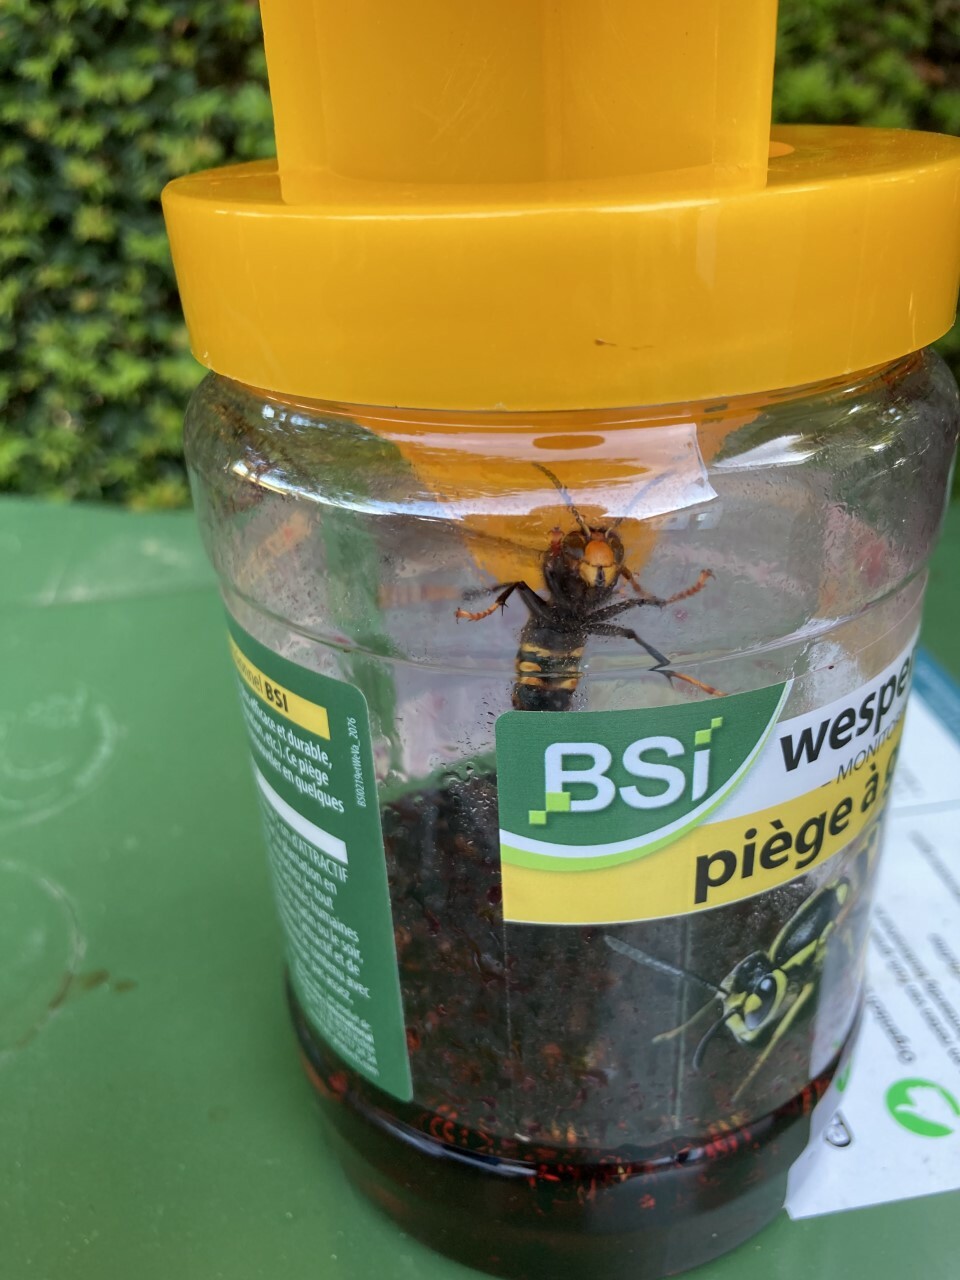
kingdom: Animalia
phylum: Arthropoda
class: Insecta
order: Hymenoptera
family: Vespidae
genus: Vespa
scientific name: Vespa velutina
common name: Asian hornet
